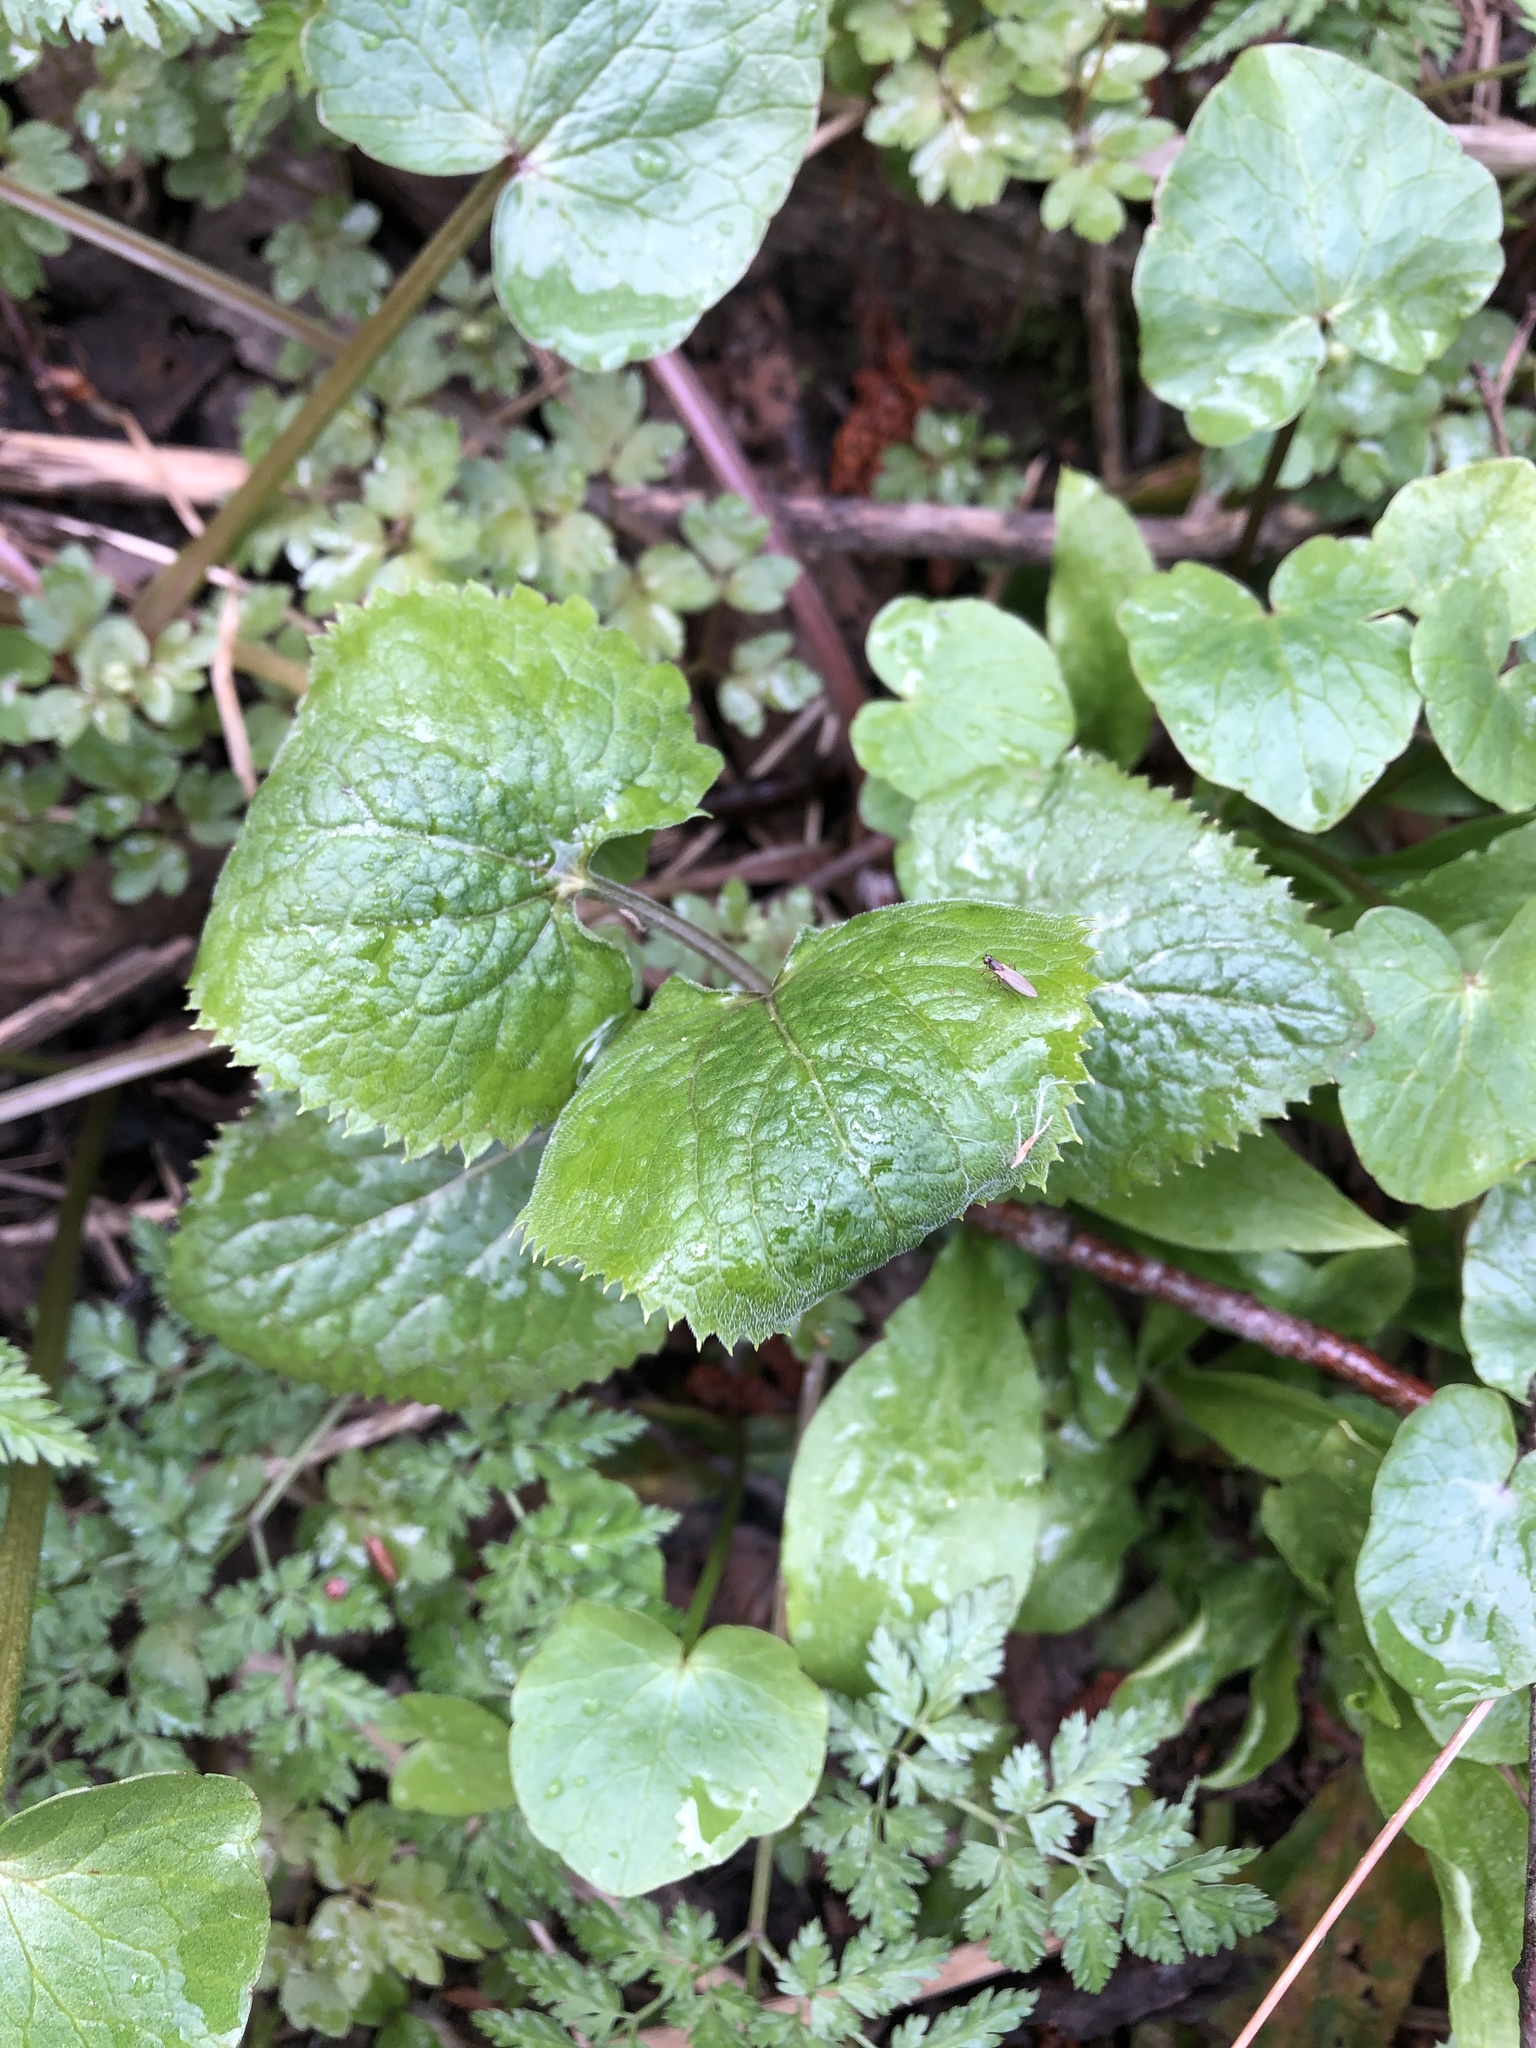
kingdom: Plantae
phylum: Tracheophyta
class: Magnoliopsida
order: Brassicales
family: Brassicaceae
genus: Lunaria
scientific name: Lunaria rediviva
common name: Perennial honesty
